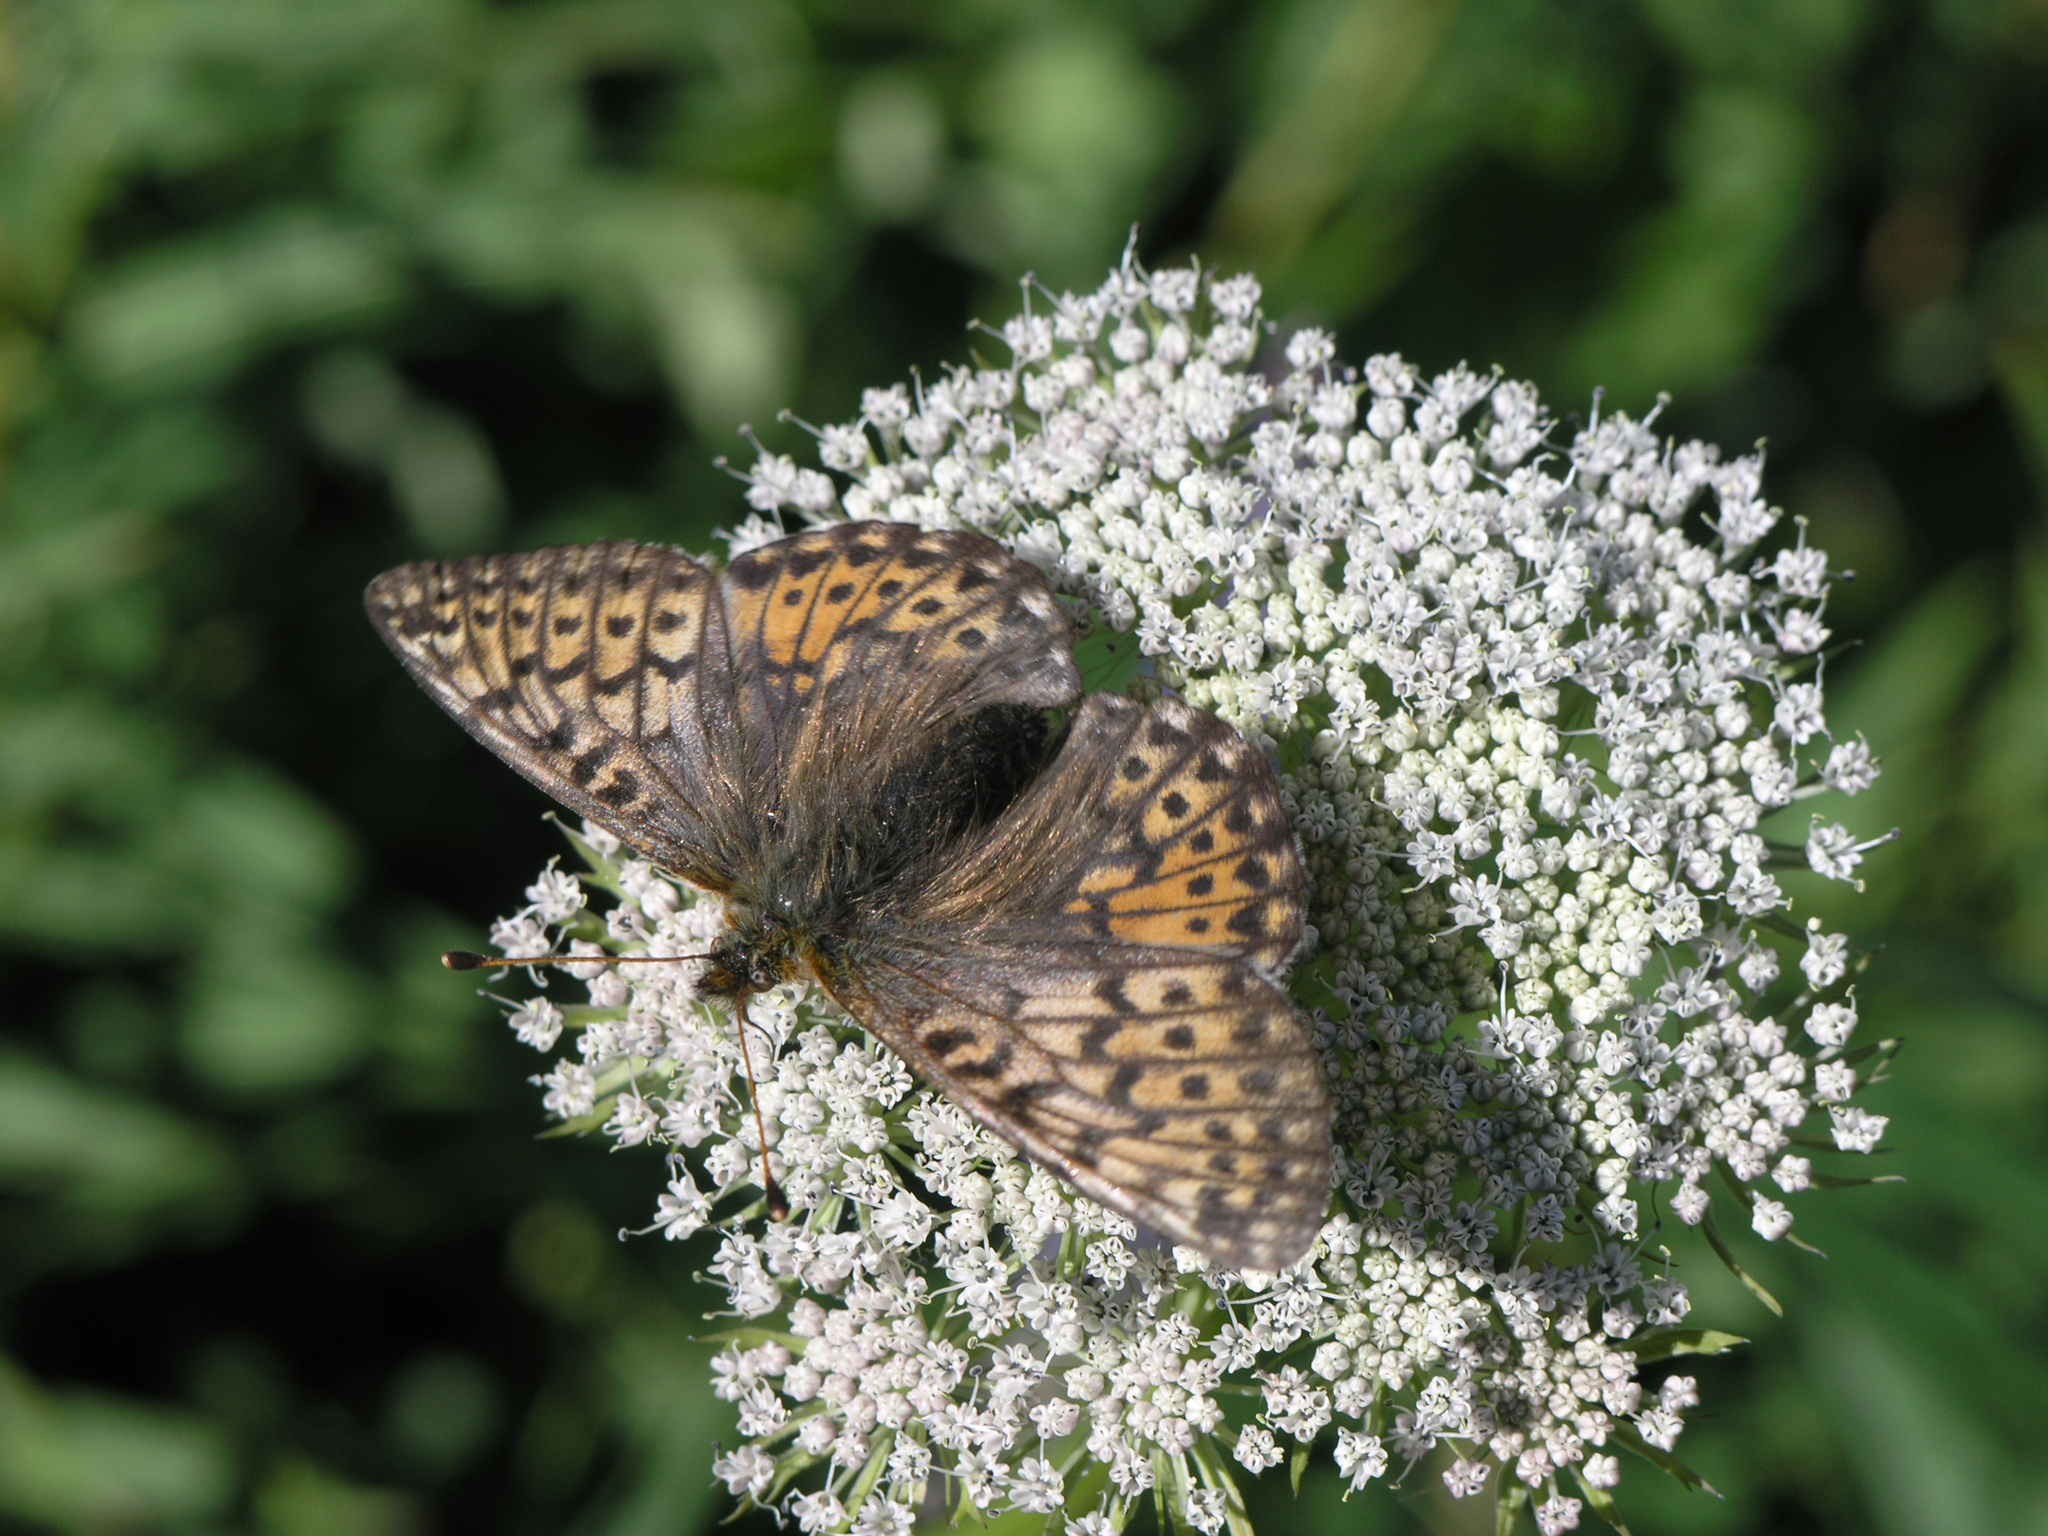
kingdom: Plantae
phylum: Tracheophyta
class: Magnoliopsida
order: Apiales
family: Apiaceae
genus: Pachypleurum
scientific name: Pachypleurum mutellinoides
